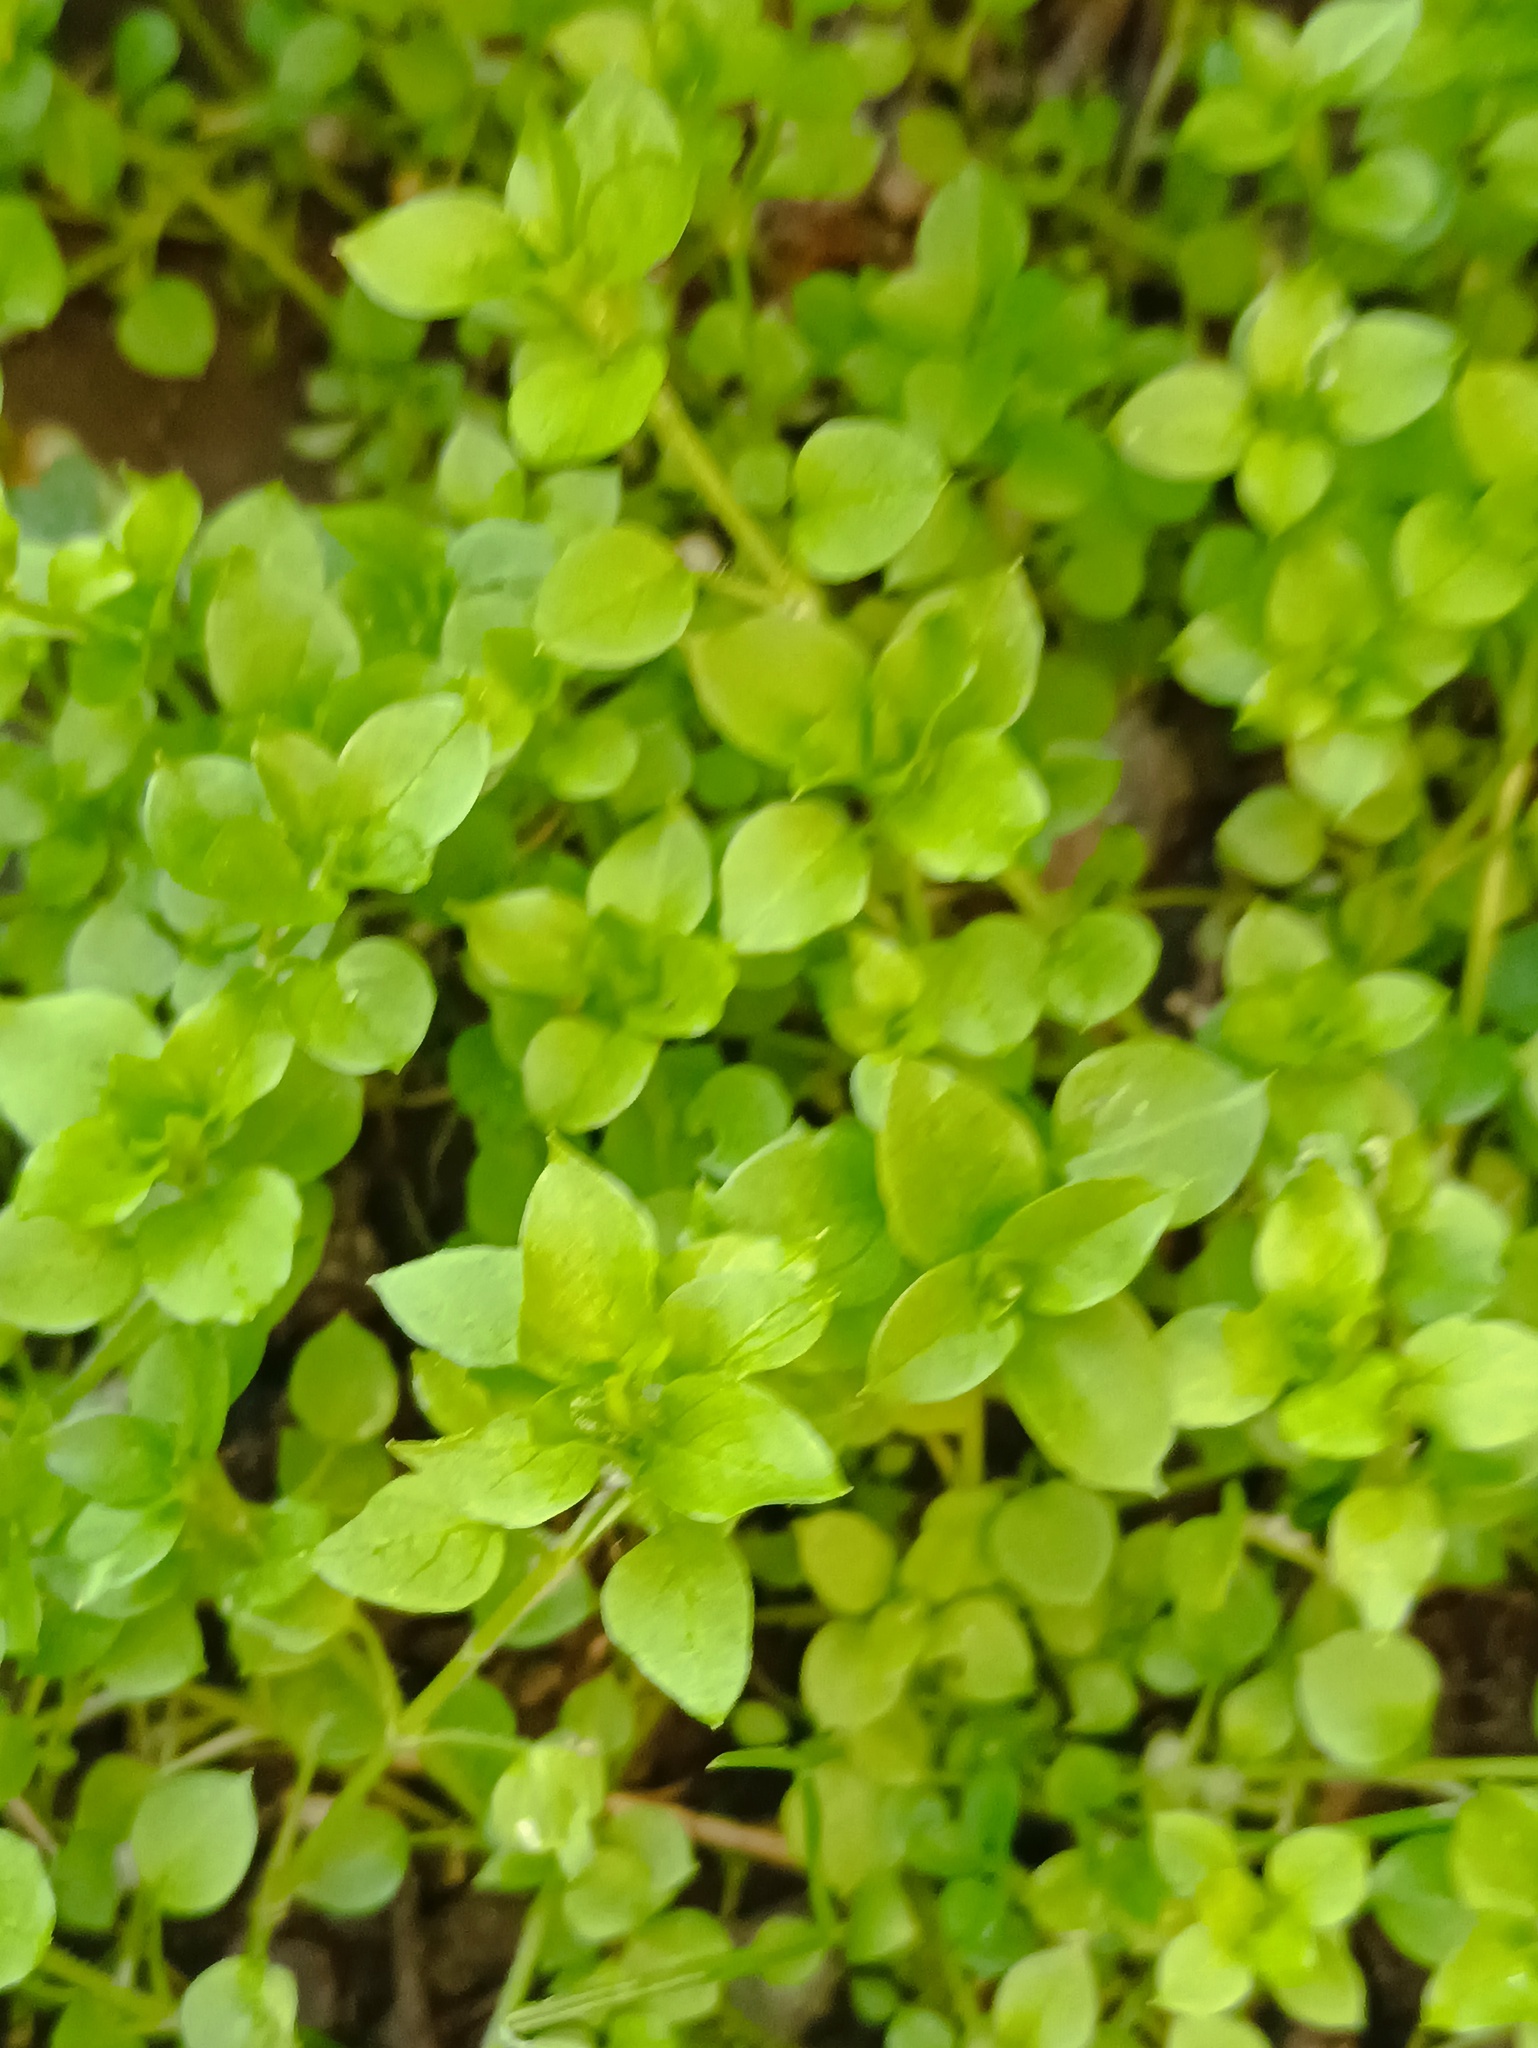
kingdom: Plantae
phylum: Tracheophyta
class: Magnoliopsida
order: Caryophyllales
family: Caryophyllaceae
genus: Stellaria
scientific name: Stellaria media
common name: Common chickweed
